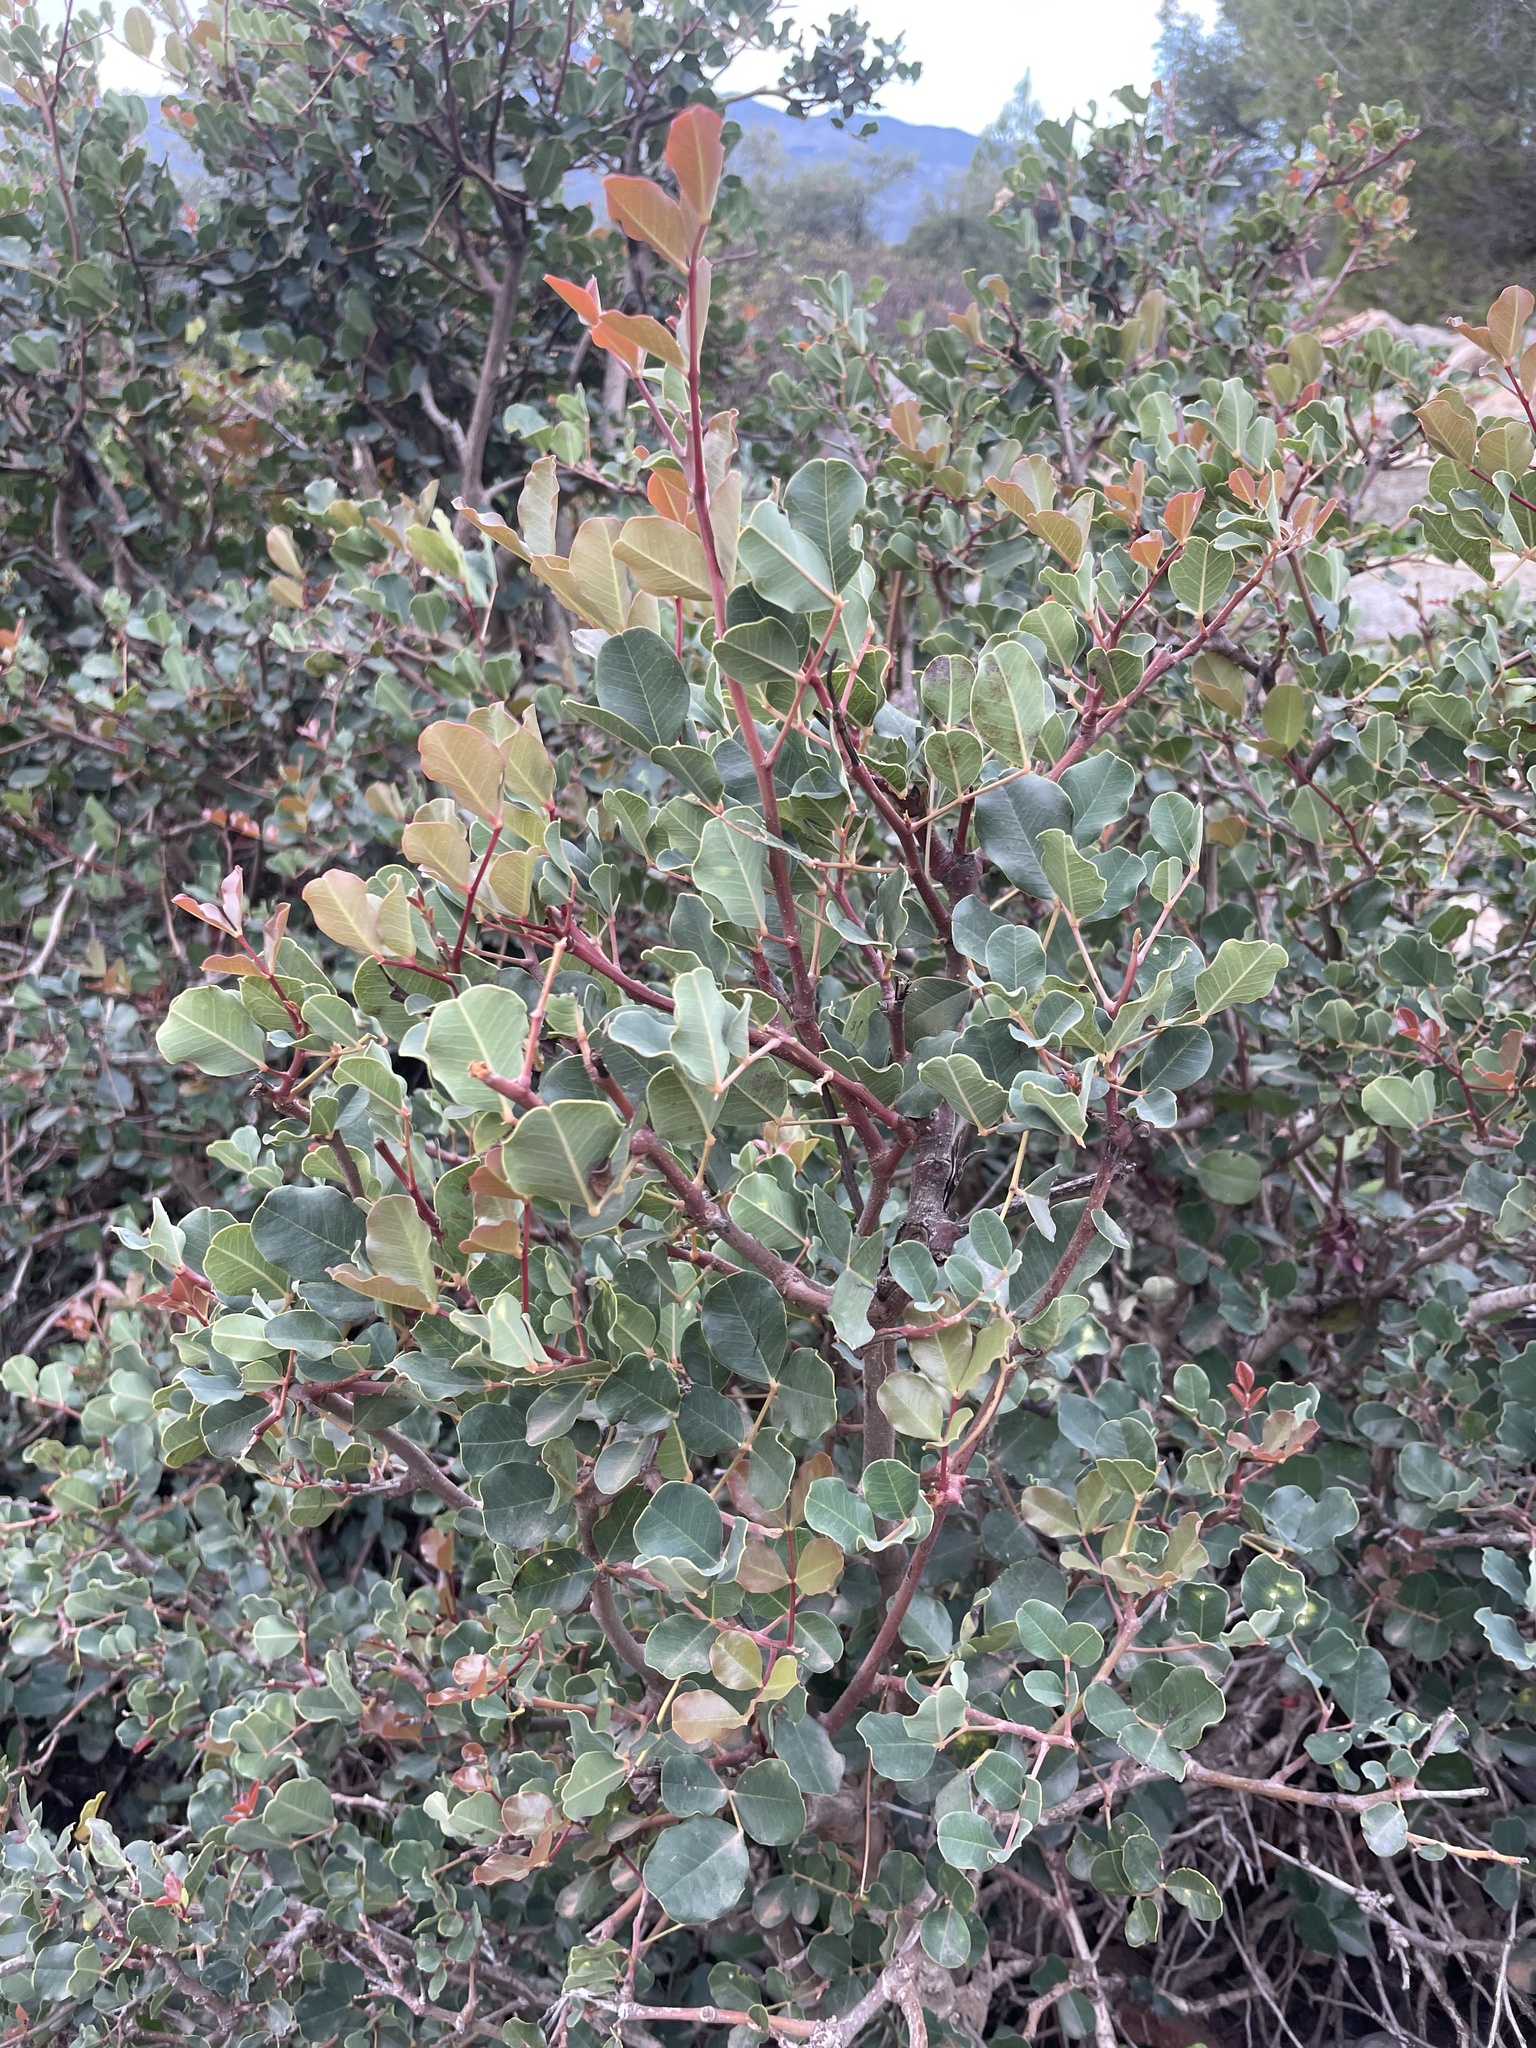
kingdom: Plantae
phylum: Tracheophyta
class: Magnoliopsida
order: Fabales
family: Fabaceae
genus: Ceratonia
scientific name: Ceratonia siliqua
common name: Carob
